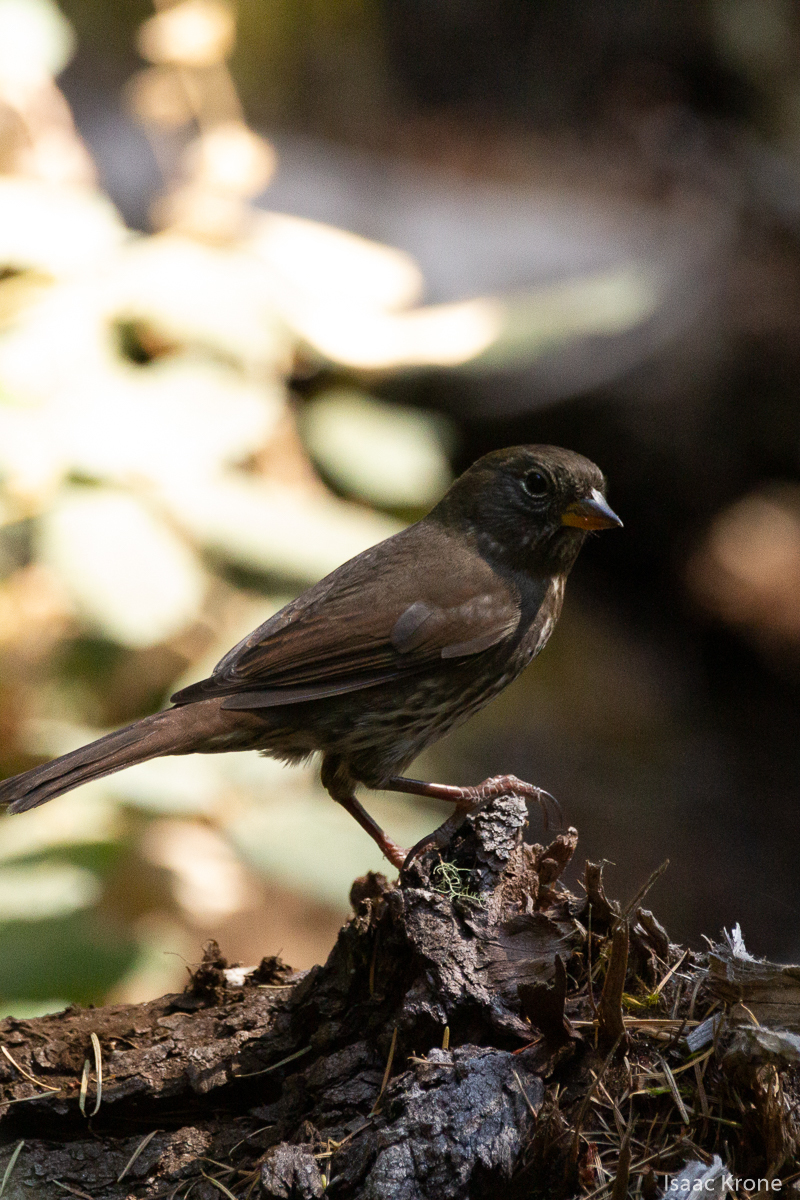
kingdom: Animalia
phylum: Chordata
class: Aves
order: Passeriformes
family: Passerellidae
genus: Passerella
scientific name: Passerella iliaca
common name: Fox sparrow
